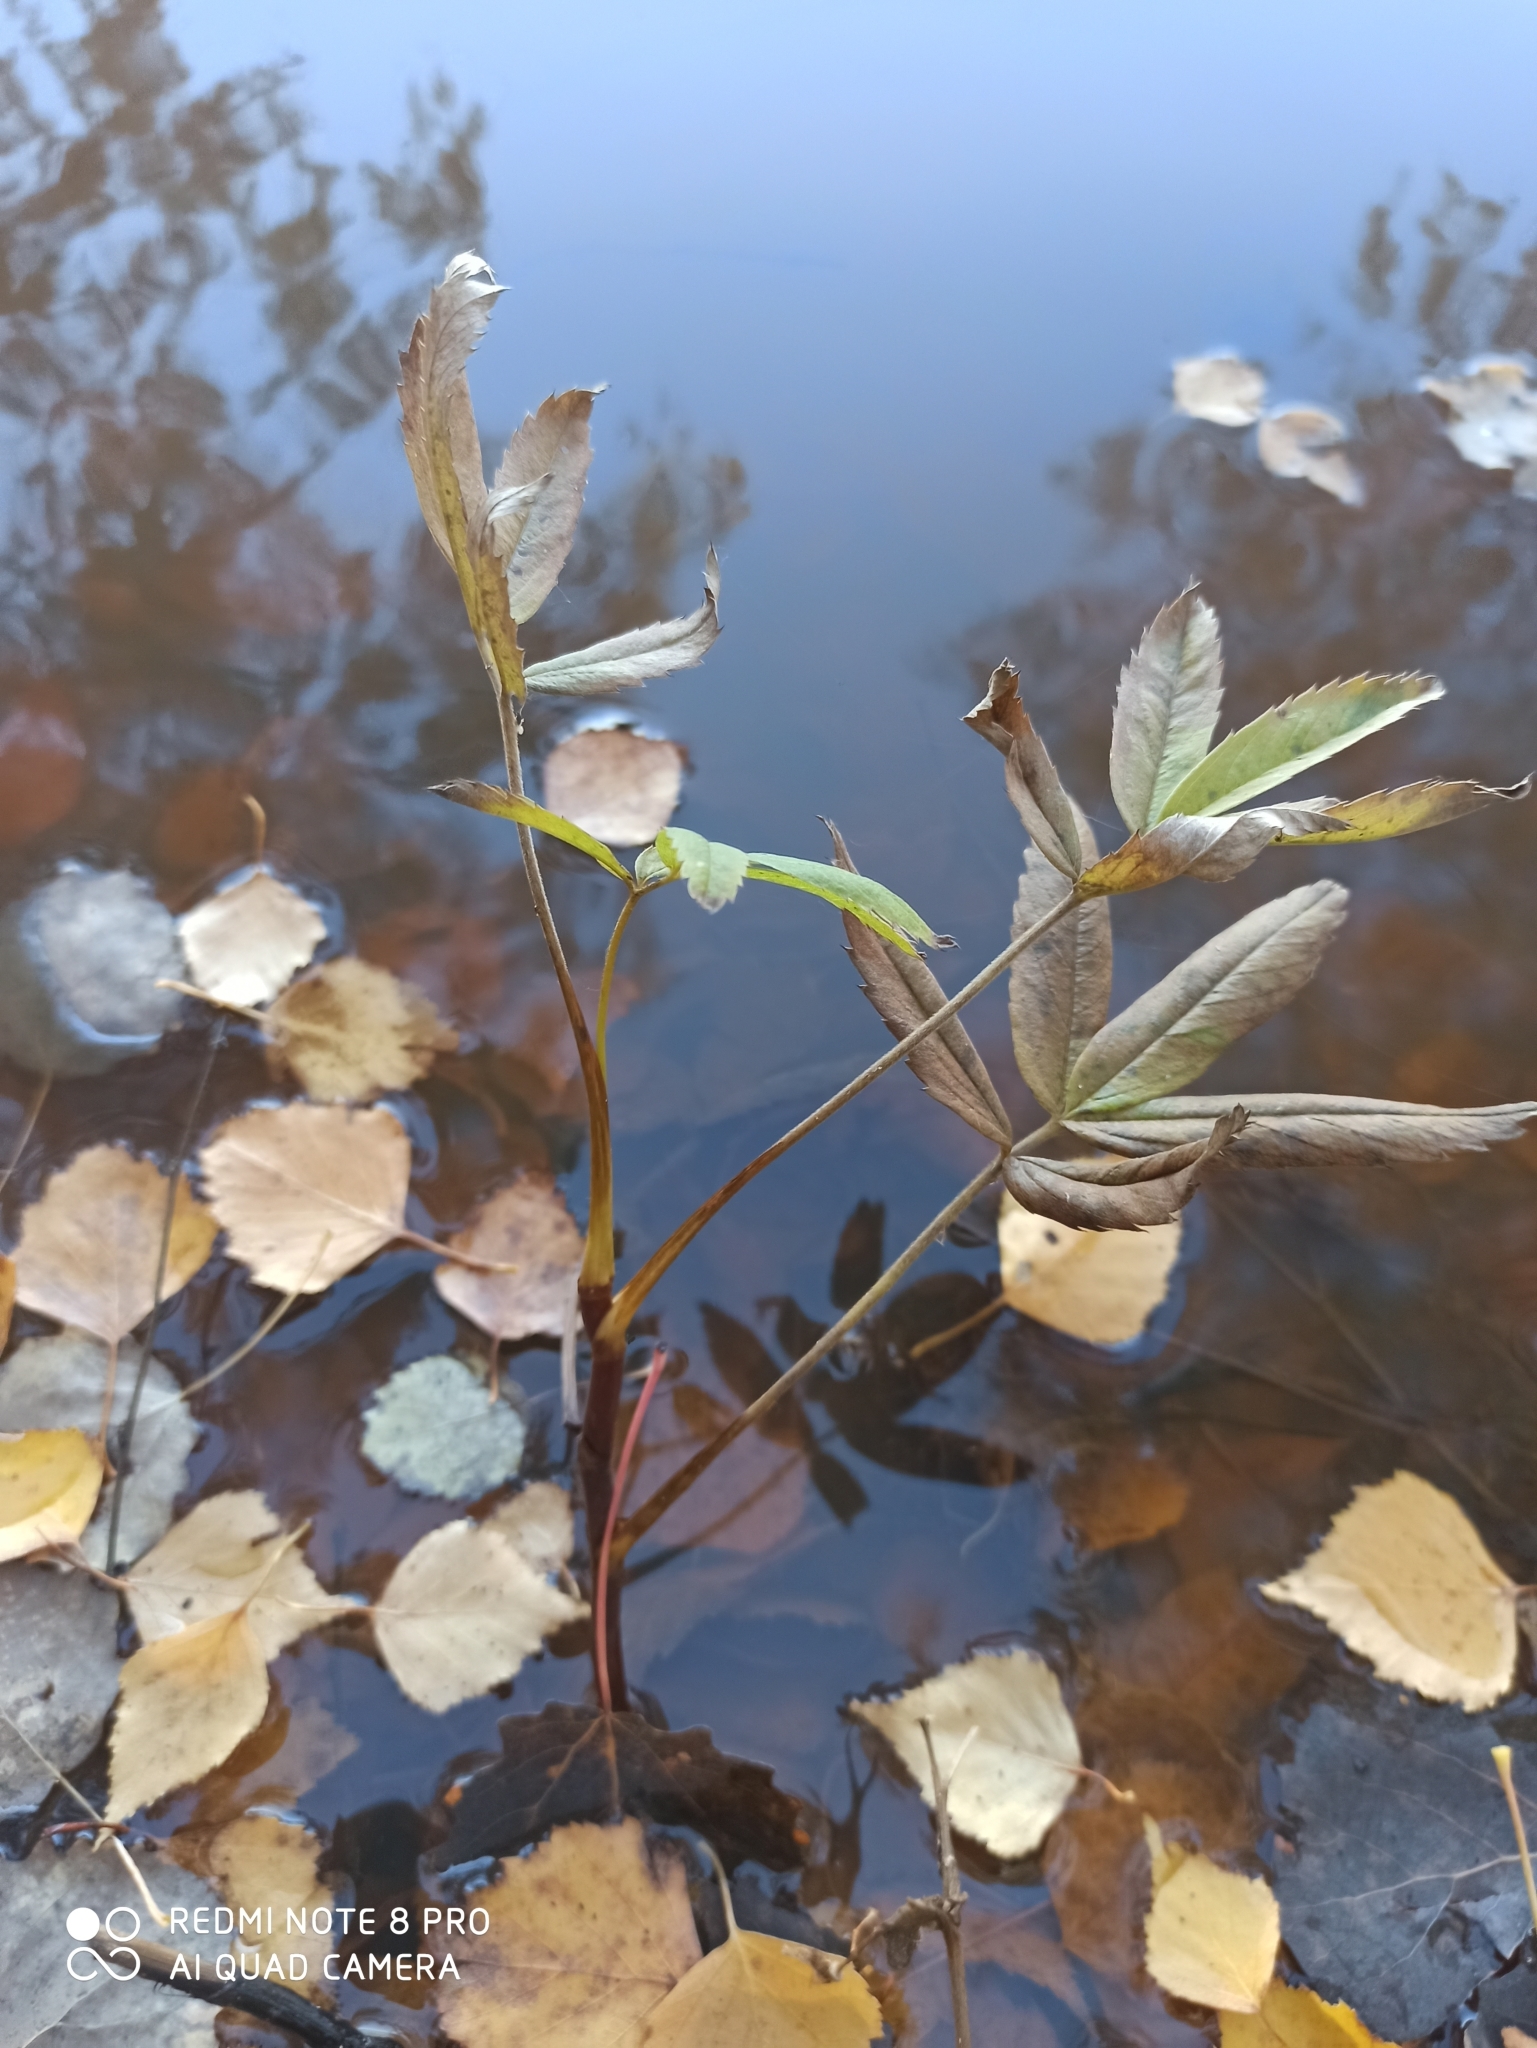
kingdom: Plantae
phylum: Tracheophyta
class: Magnoliopsida
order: Rosales
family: Rosaceae
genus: Comarum
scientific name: Comarum palustre
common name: Marsh cinquefoil
